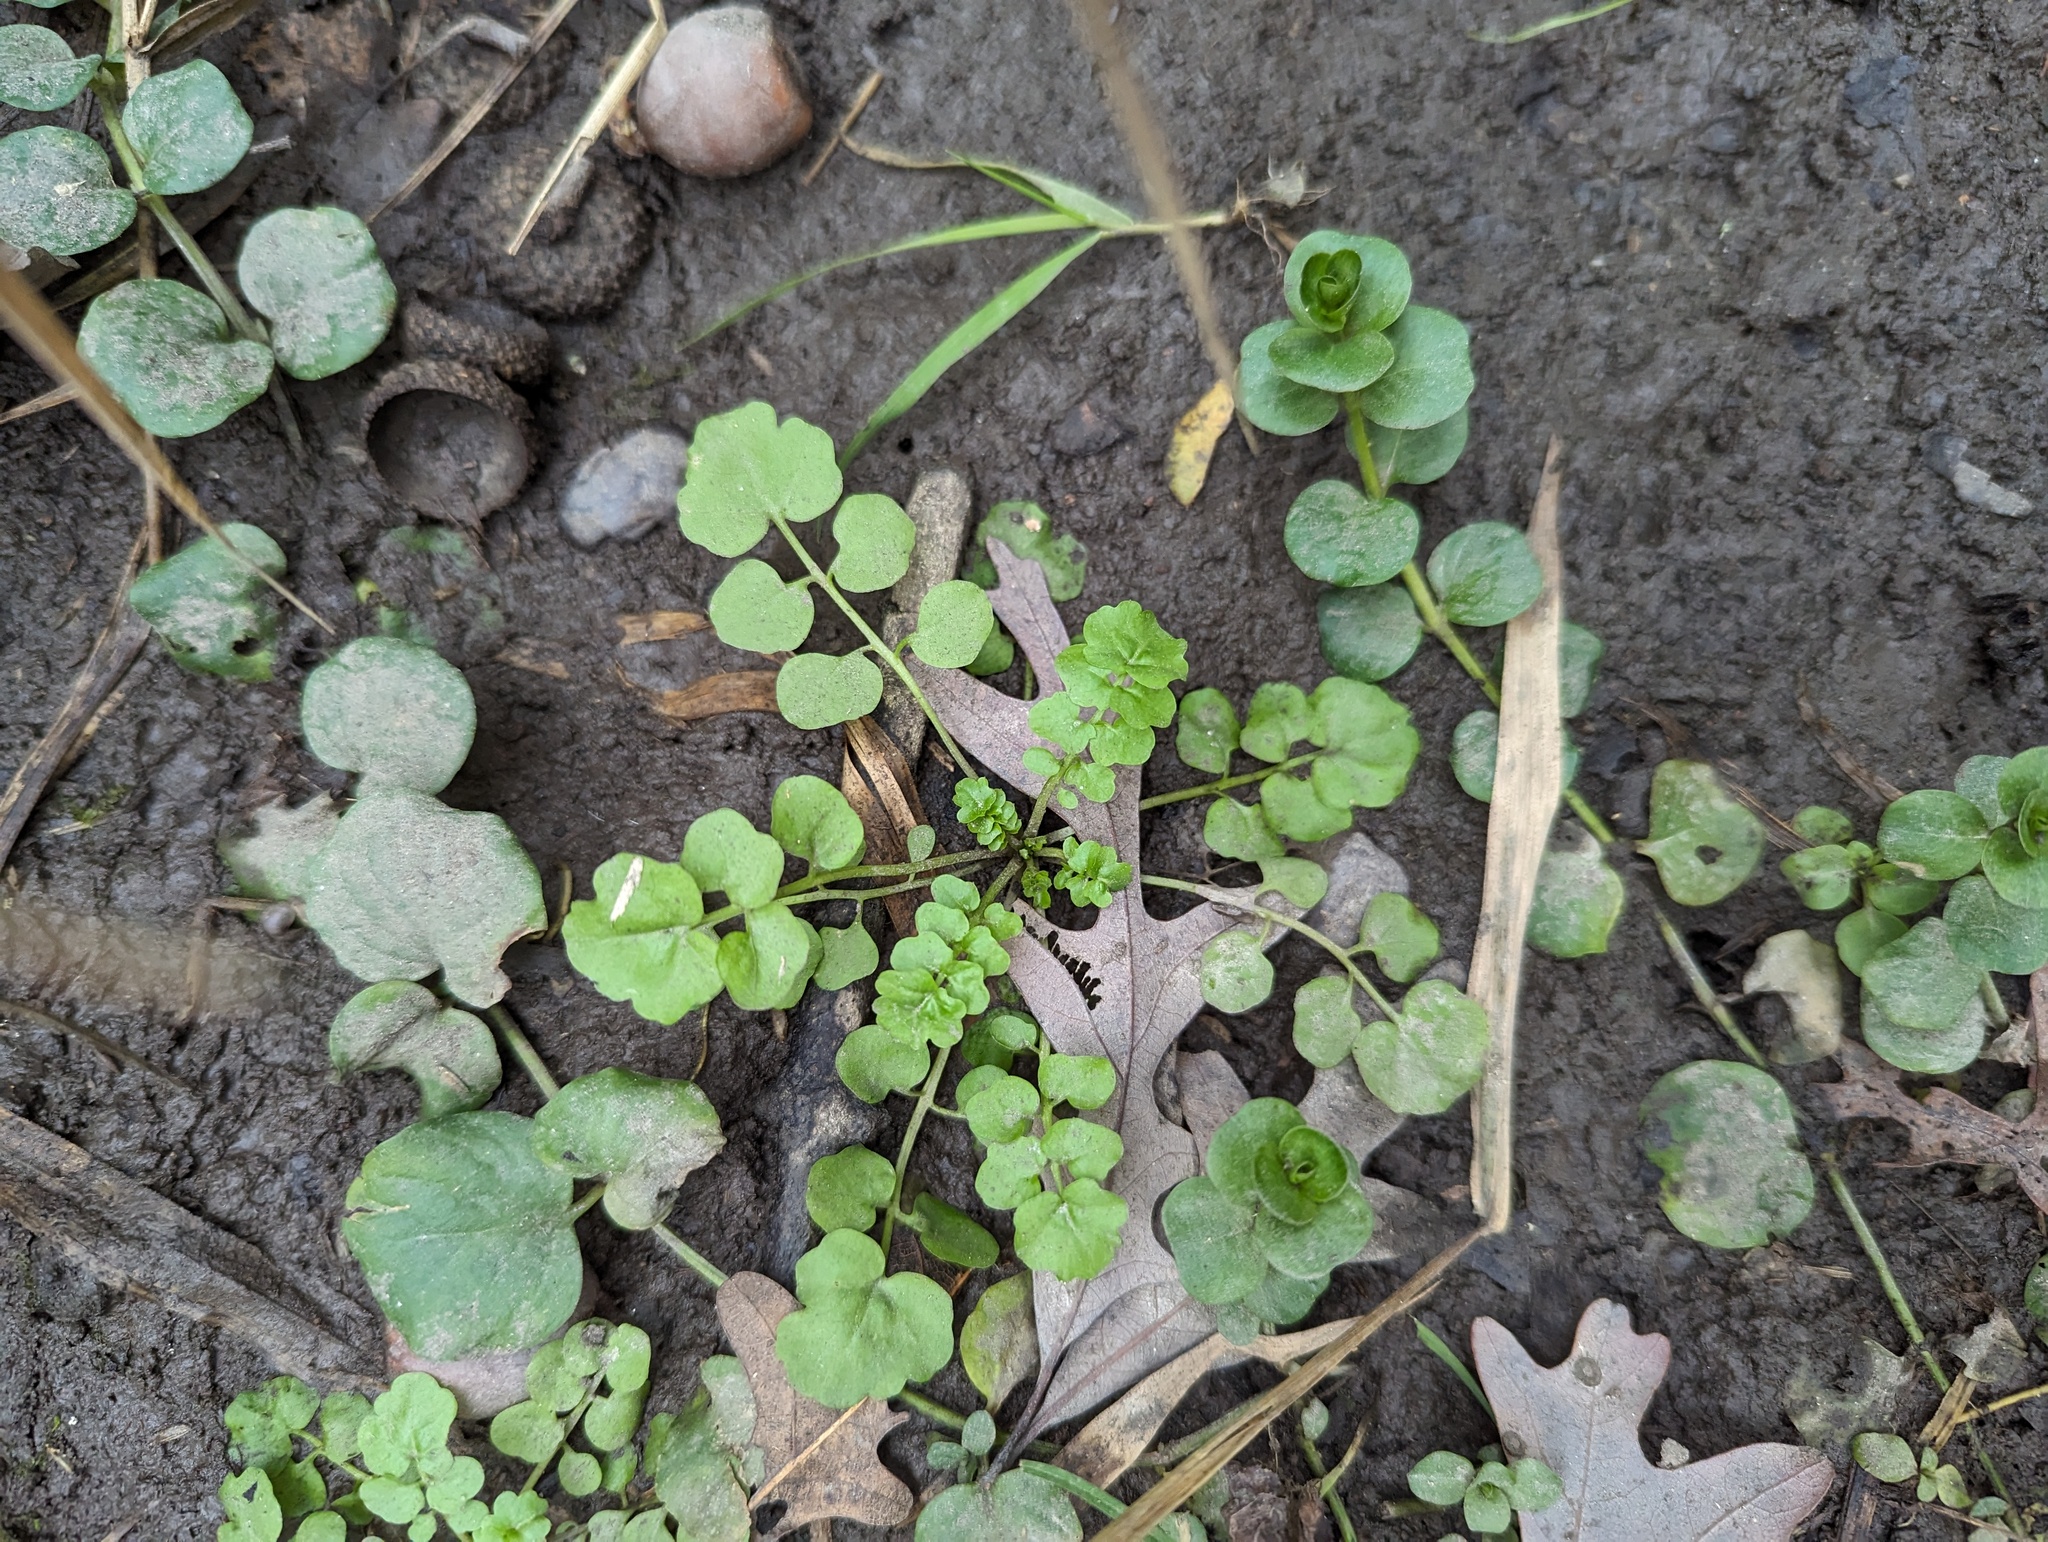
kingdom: Plantae
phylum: Tracheophyta
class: Magnoliopsida
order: Brassicales
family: Brassicaceae
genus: Cardamine
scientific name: Cardamine hirsuta
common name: Hairy bittercress
